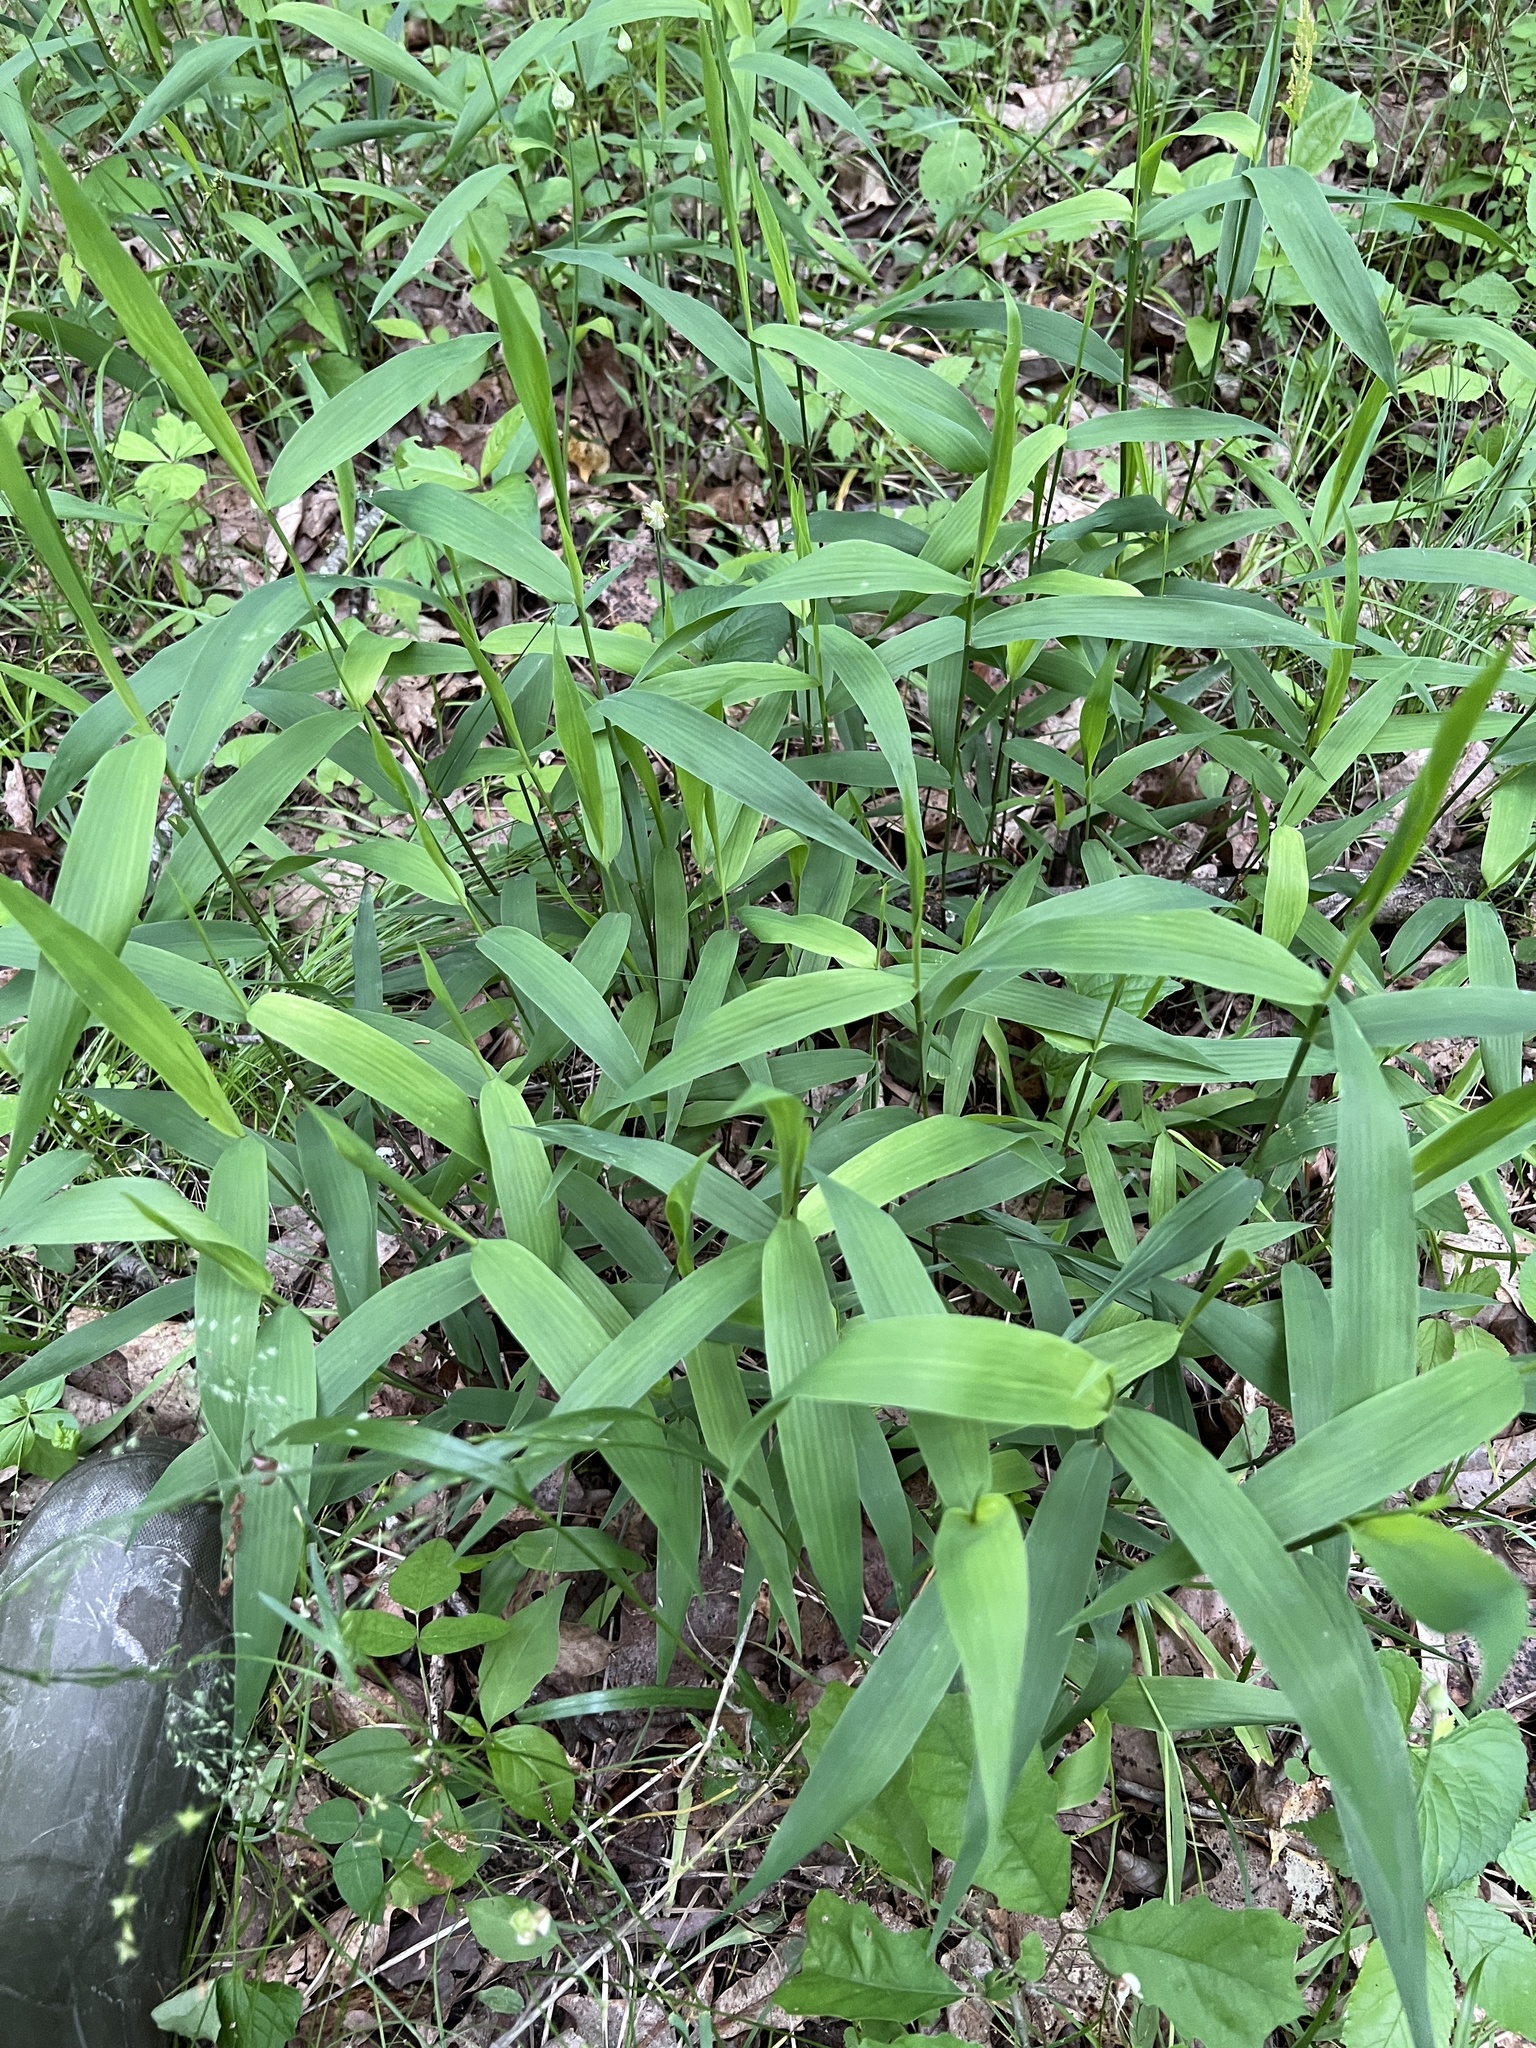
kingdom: Plantae
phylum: Tracheophyta
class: Liliopsida
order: Poales
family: Poaceae
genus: Chasmanthium
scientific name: Chasmanthium latifolium
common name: Broad-leaved chasmanthium
